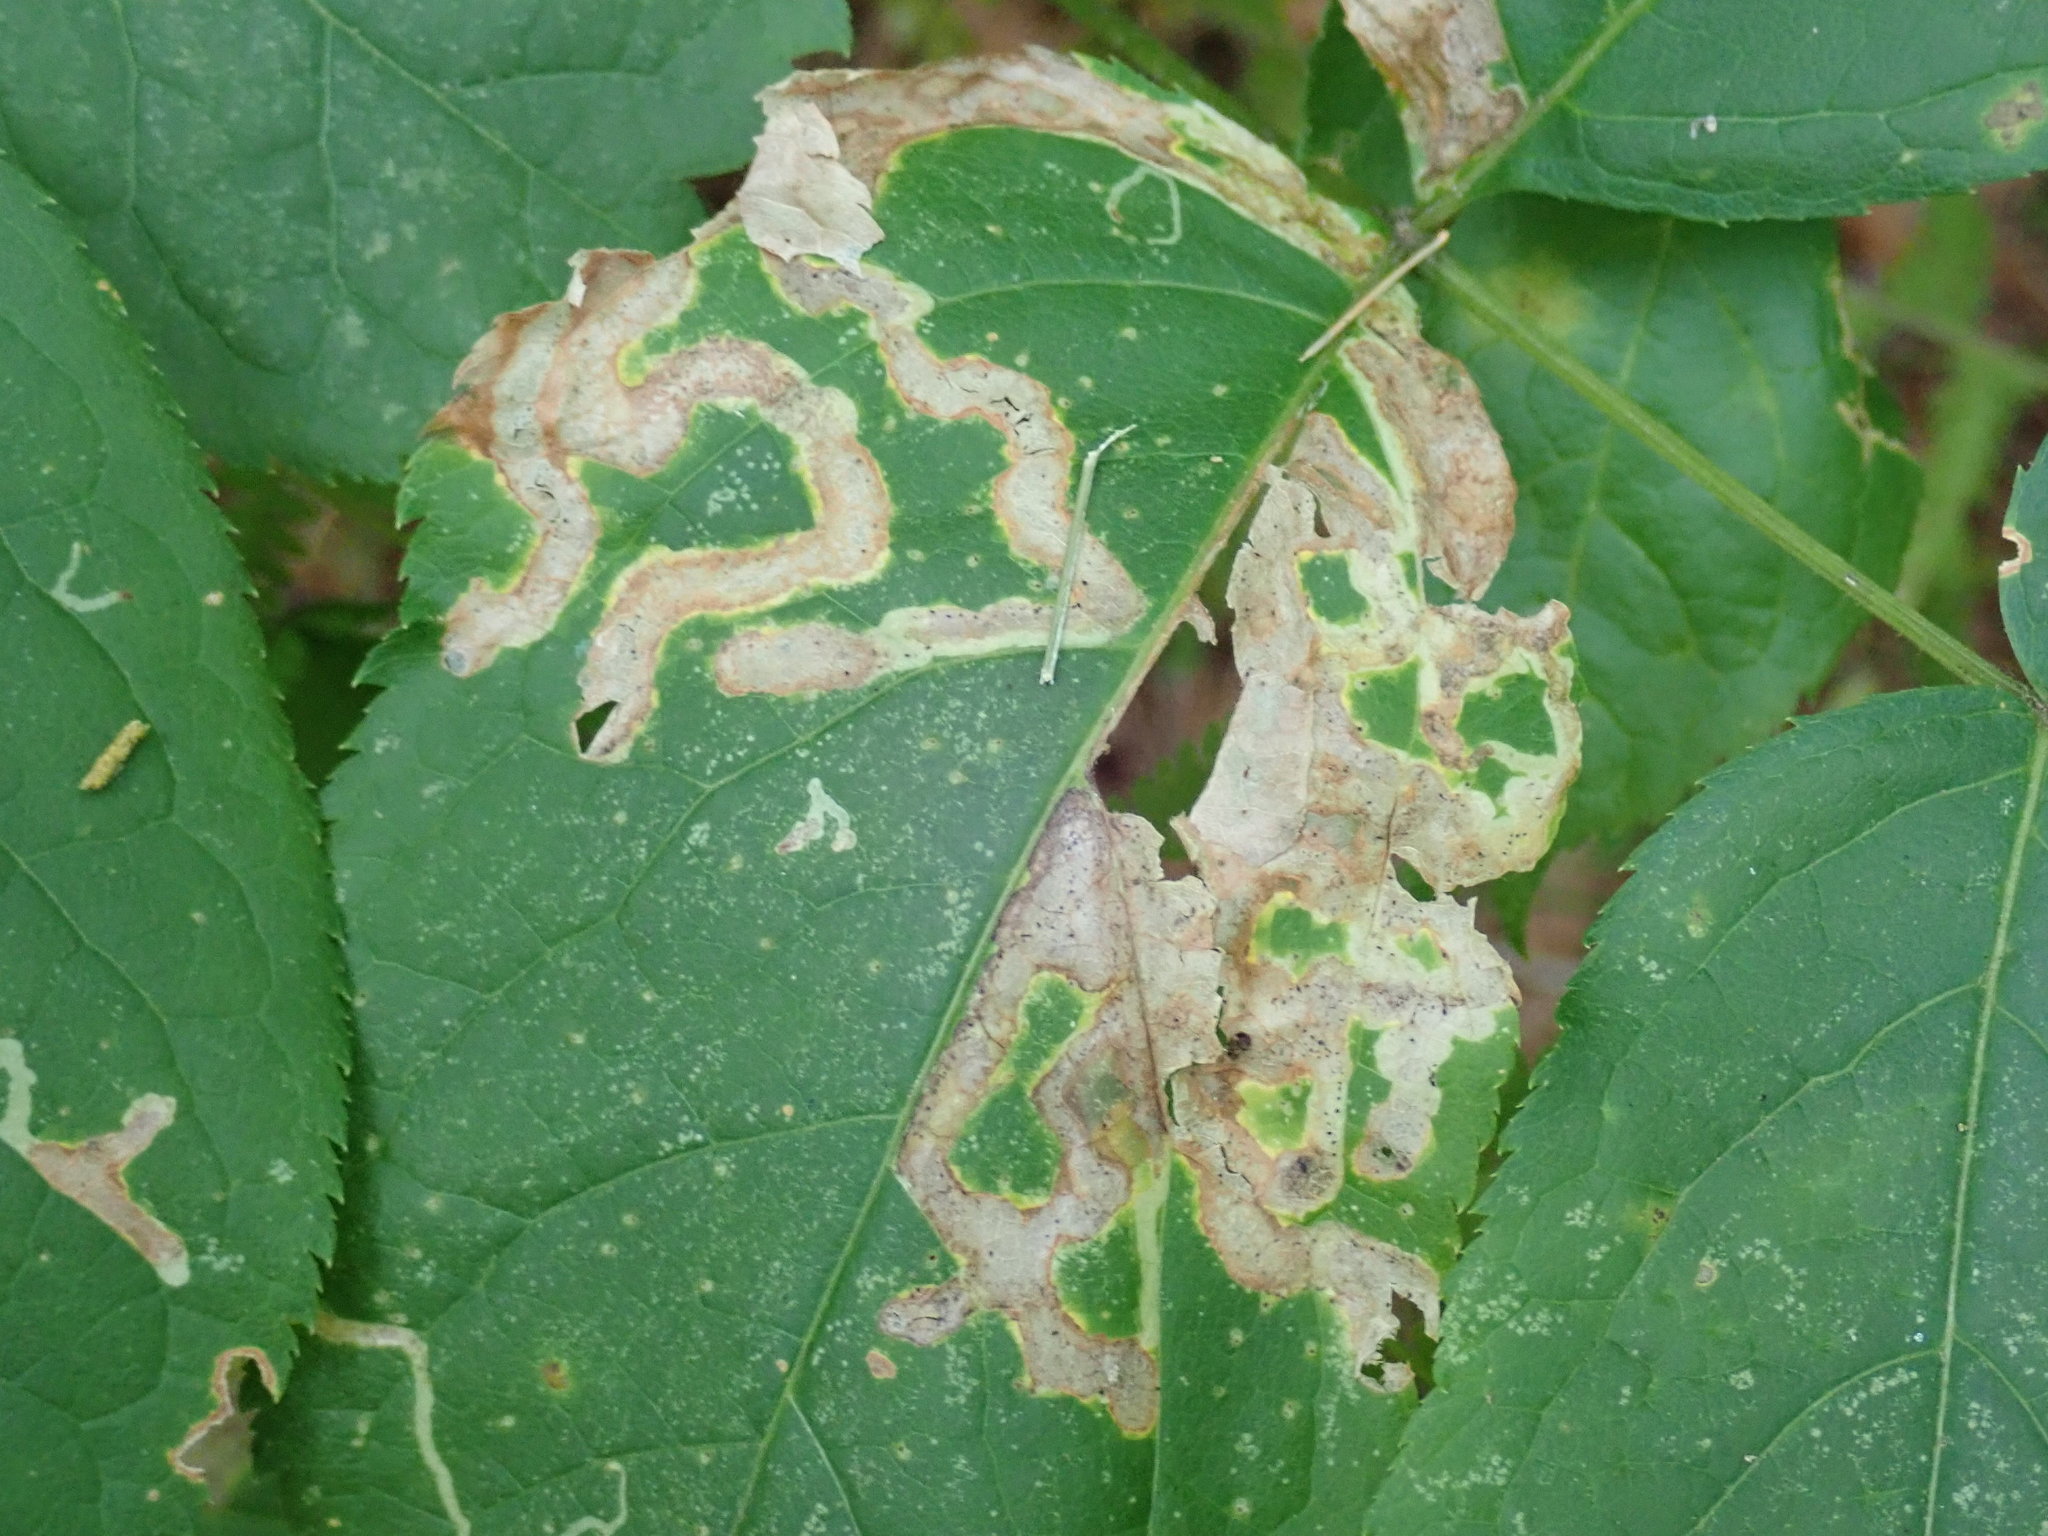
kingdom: Animalia
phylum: Arthropoda
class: Insecta
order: Diptera
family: Agromyzidae
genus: Phytomyza
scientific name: Phytomyza aralivora
